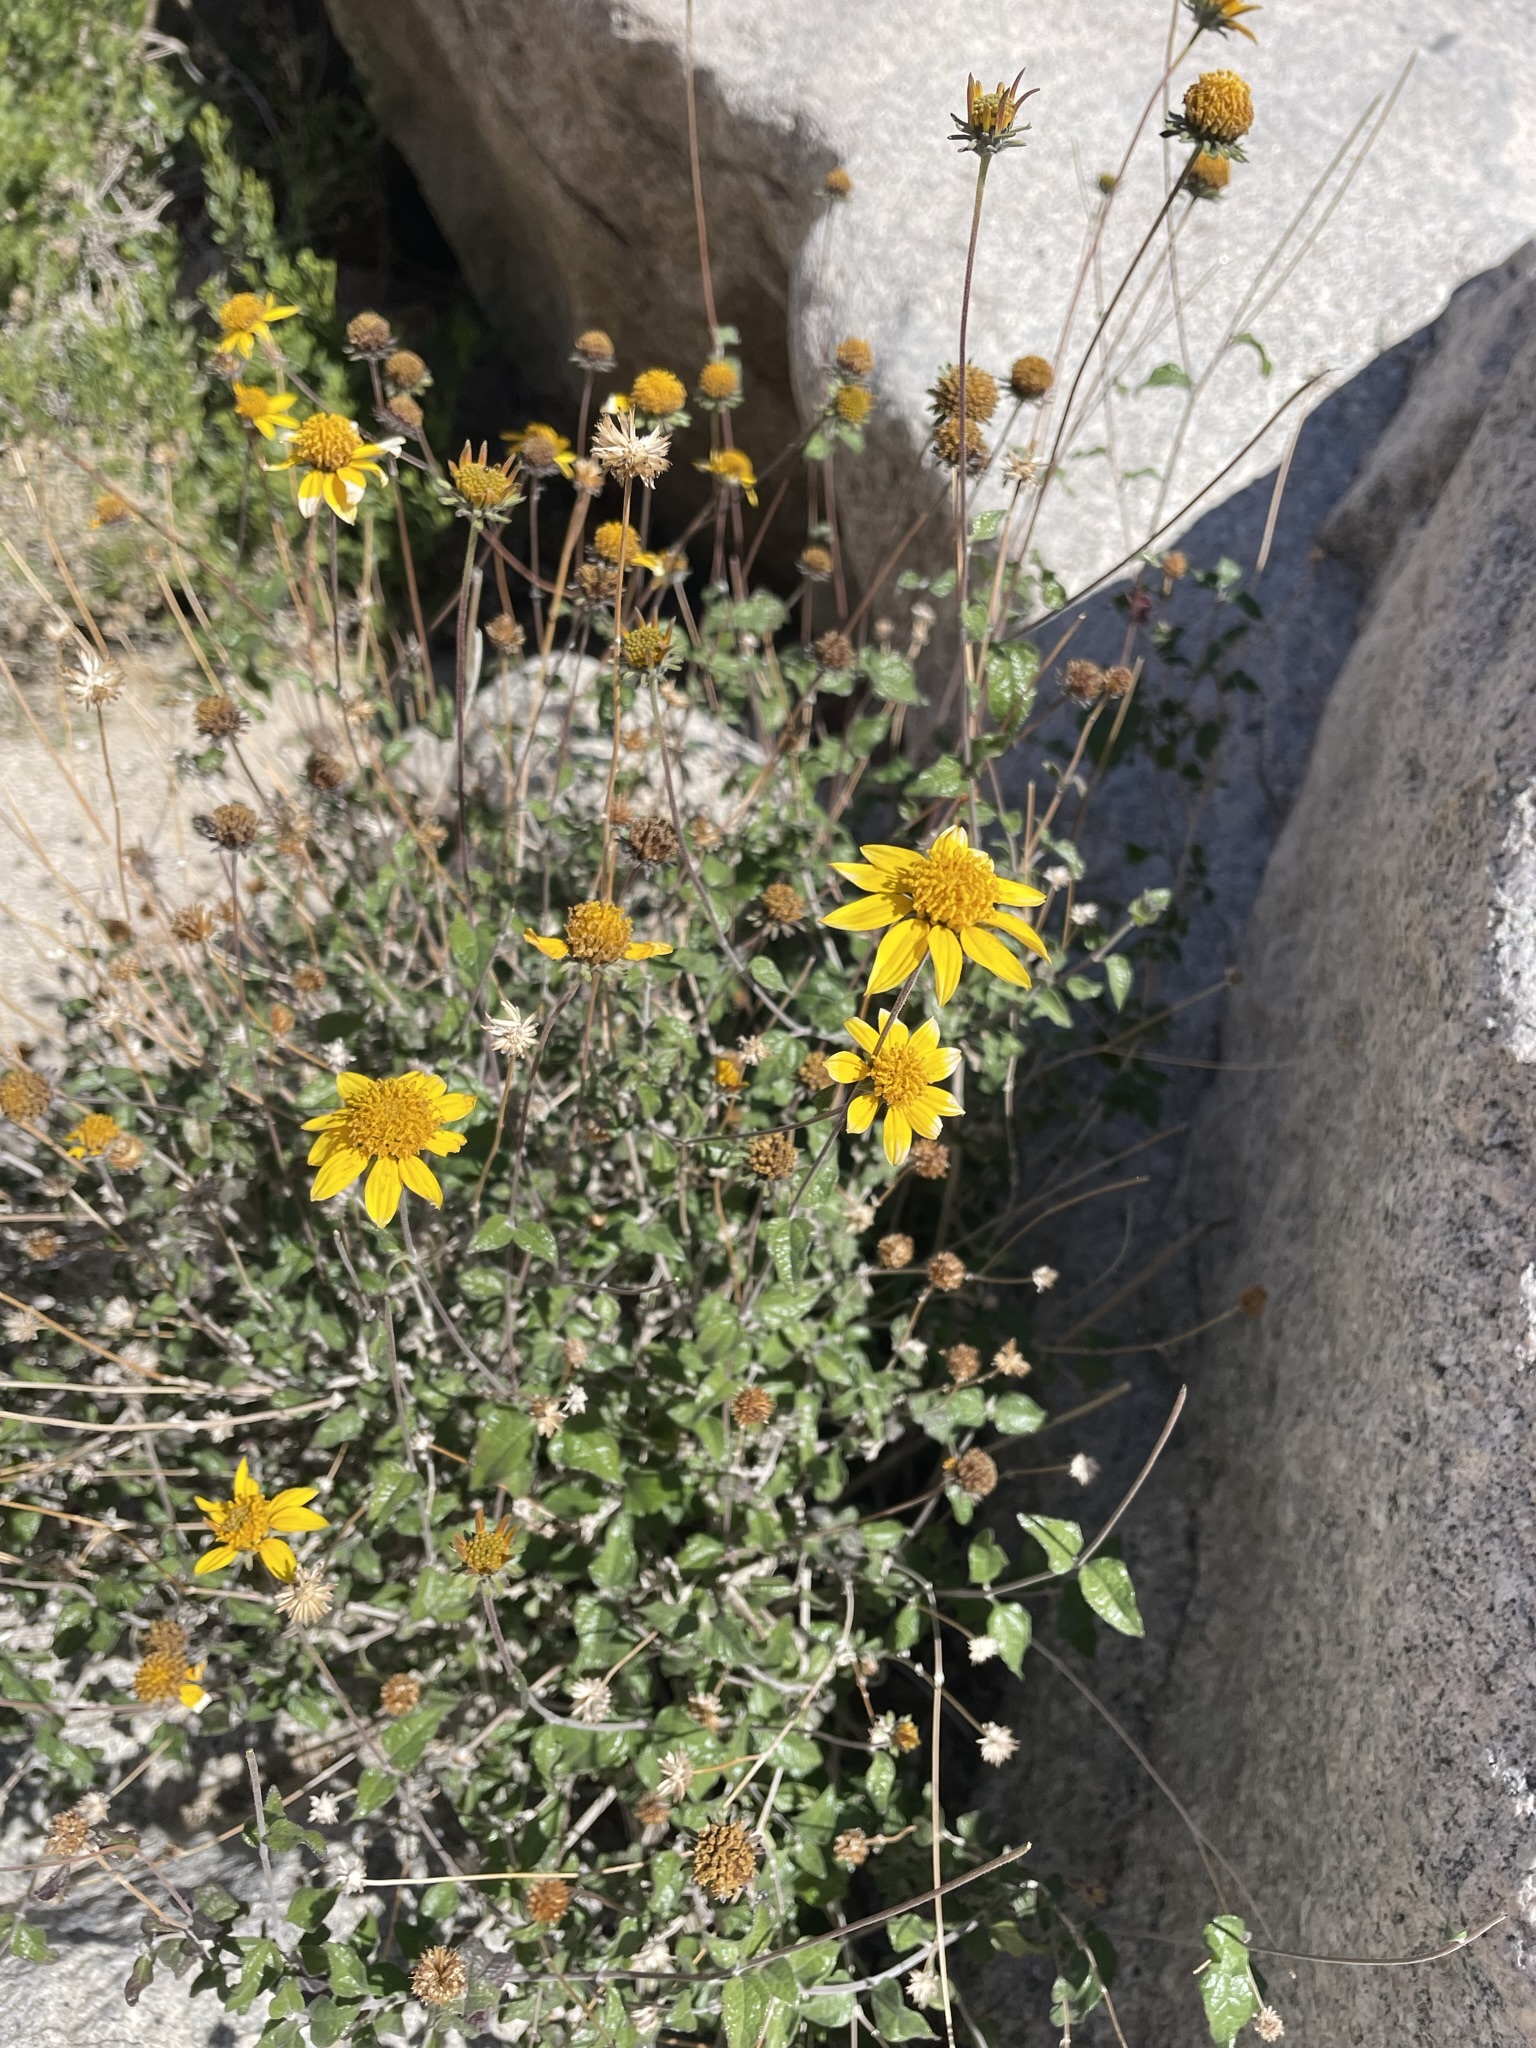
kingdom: Plantae
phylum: Tracheophyta
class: Magnoliopsida
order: Asterales
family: Asteraceae
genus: Bahiopsis
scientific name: Bahiopsis parishii
